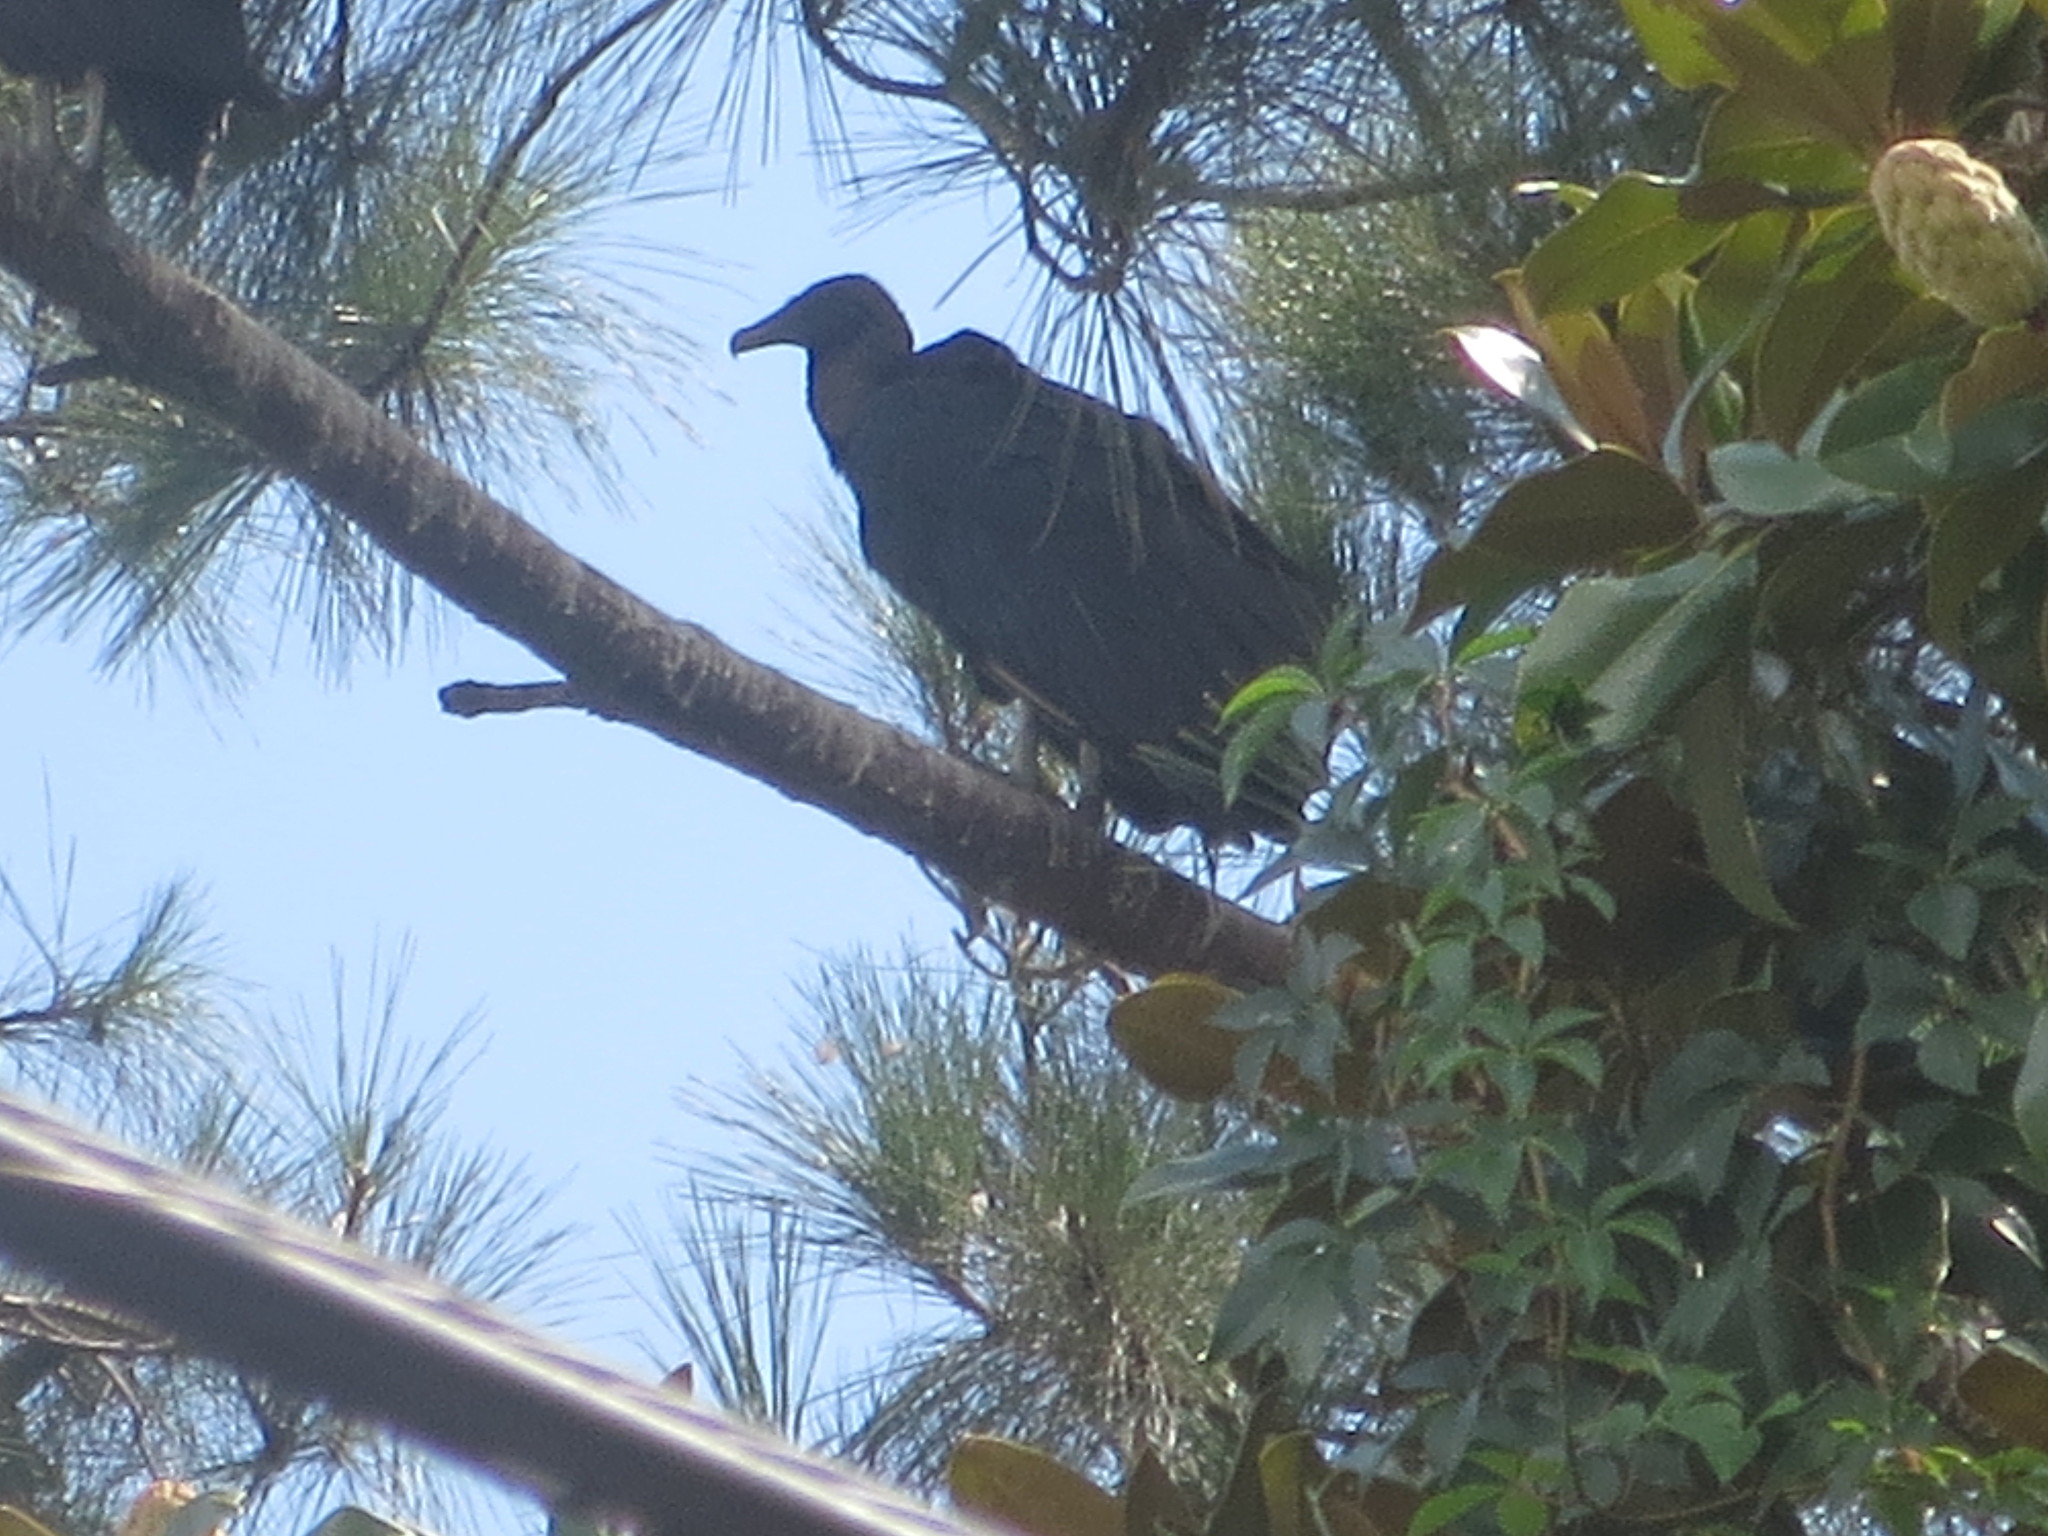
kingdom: Plantae
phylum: Tracheophyta
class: Magnoliopsida
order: Magnoliales
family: Magnoliaceae
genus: Magnolia
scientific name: Magnolia grandiflora
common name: Southern magnolia
